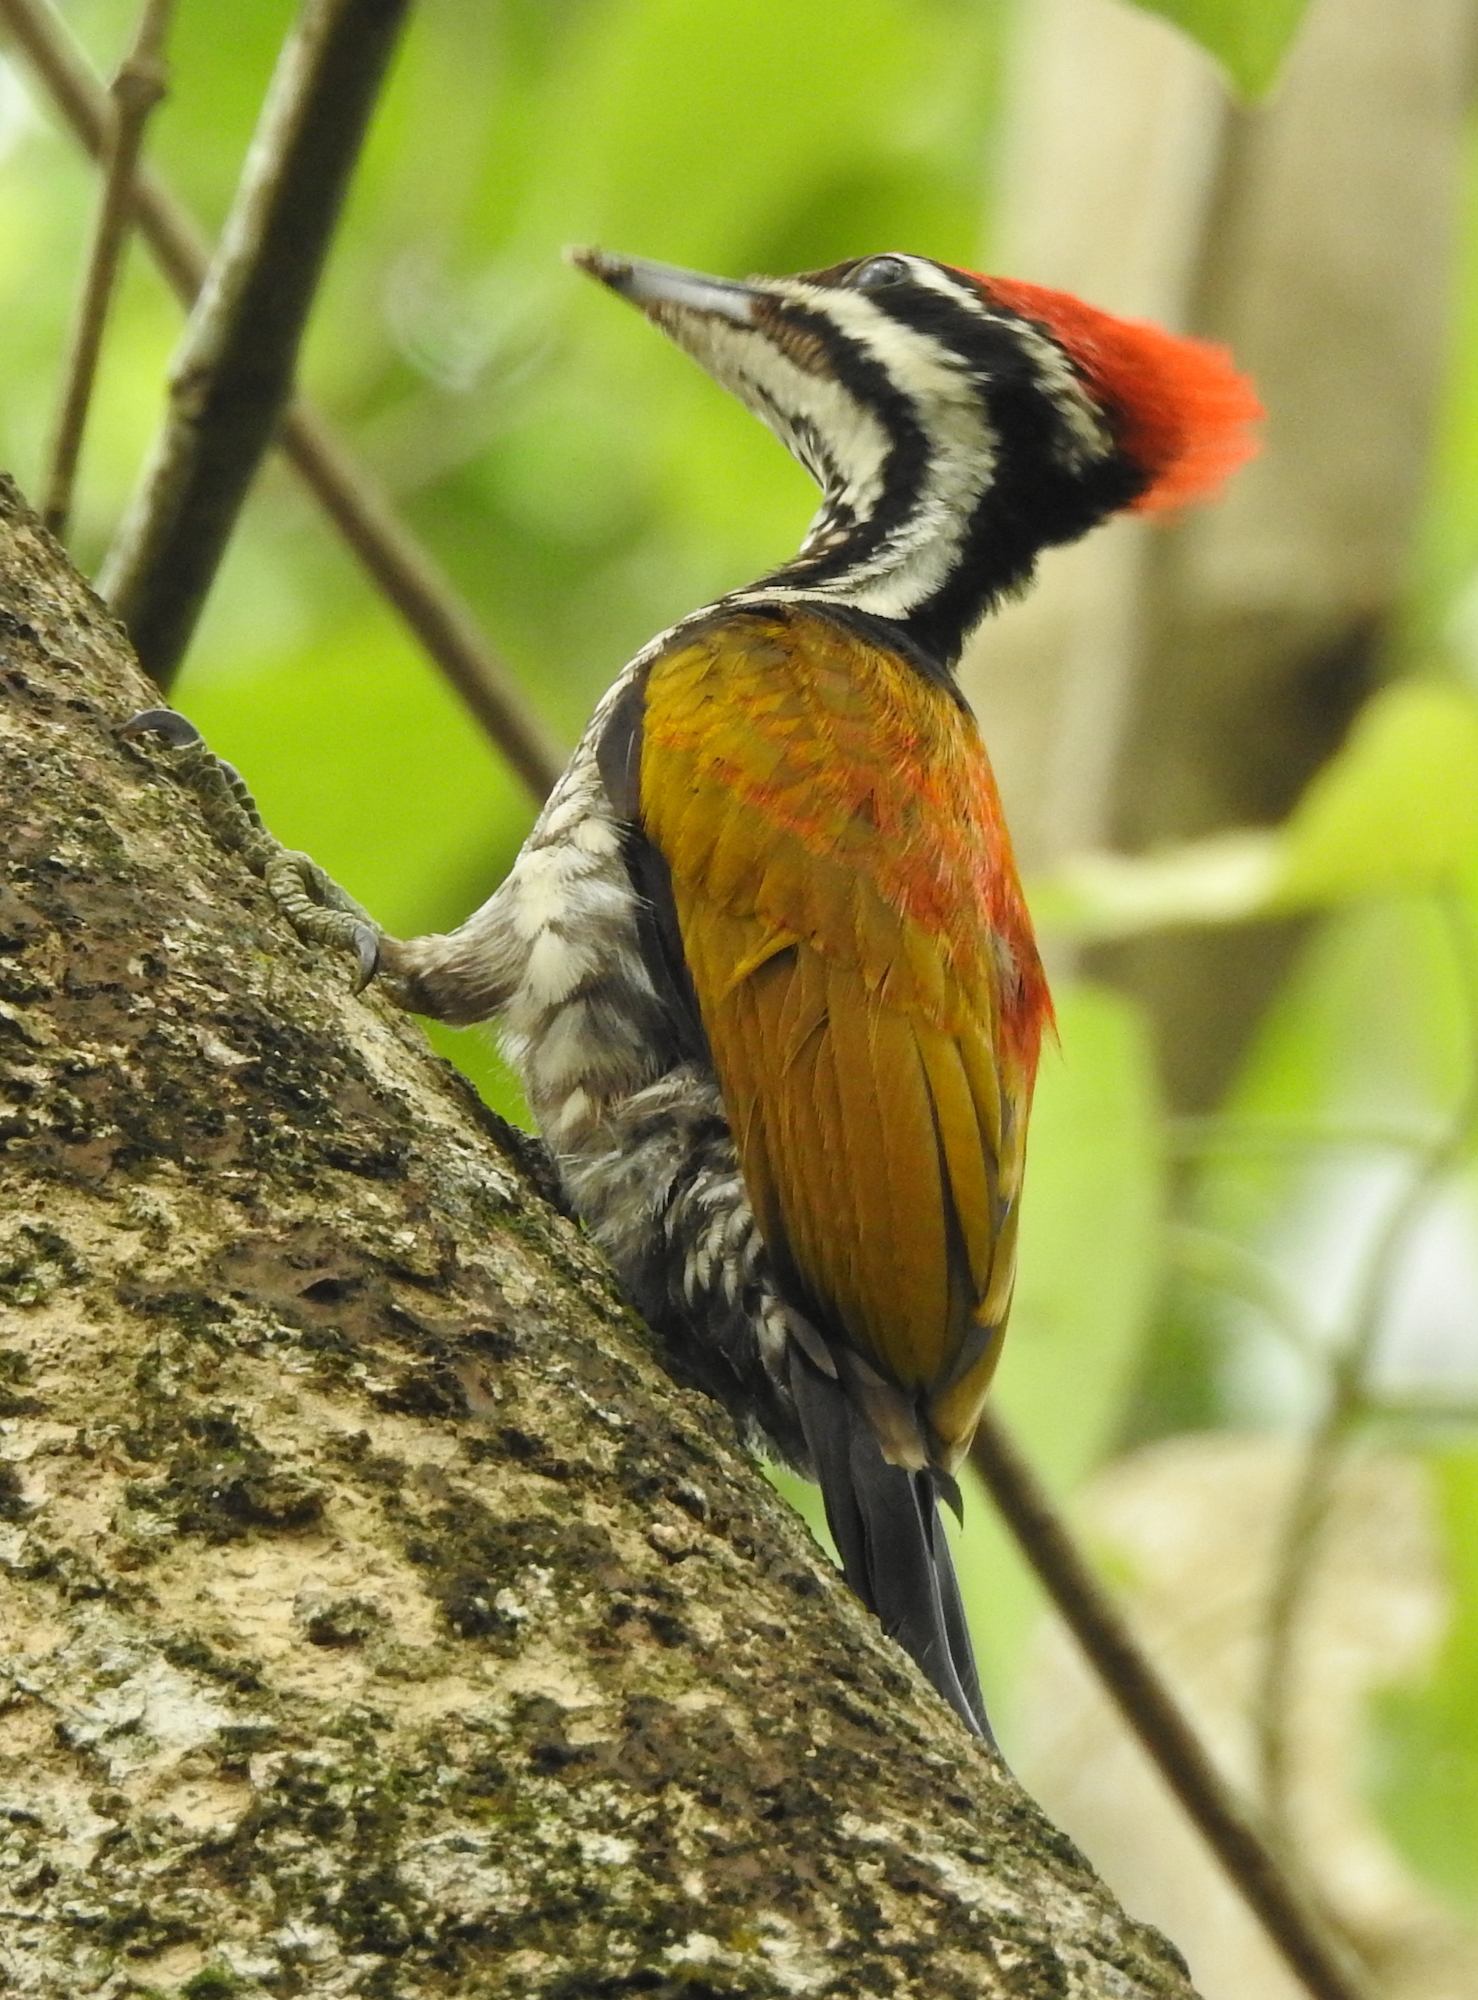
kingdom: Animalia
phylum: Chordata
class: Aves
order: Piciformes
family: Picidae
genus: Dinopium
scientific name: Dinopium javanense
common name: Common flameback
